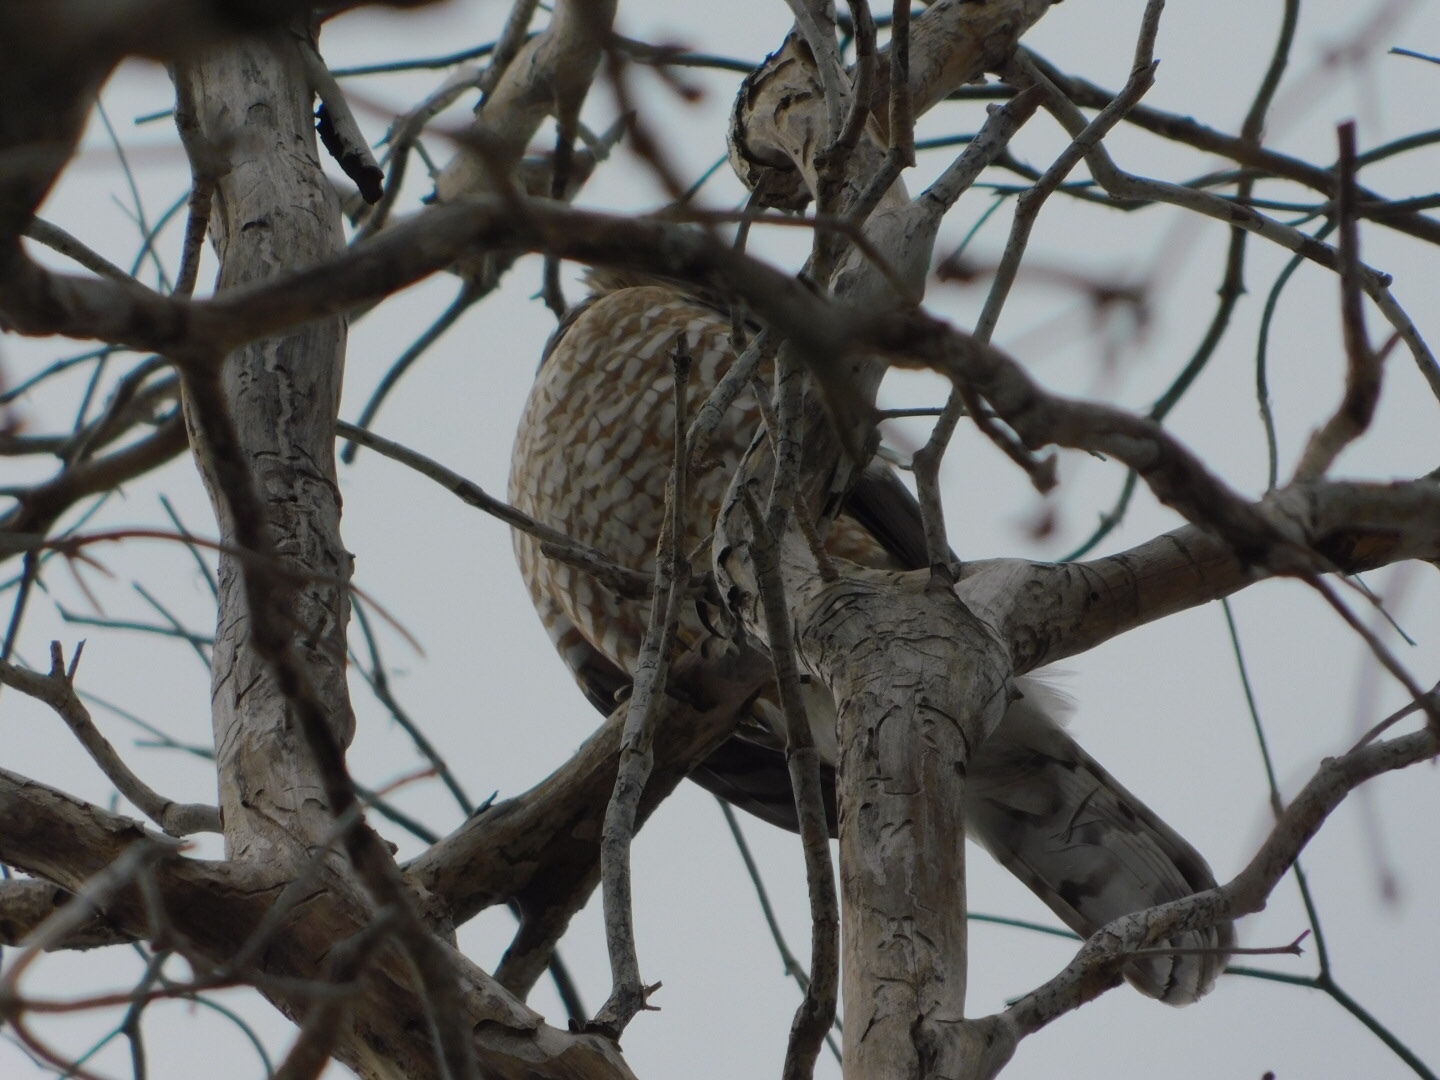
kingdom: Animalia
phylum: Chordata
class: Aves
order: Accipitriformes
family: Accipitridae
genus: Accipiter
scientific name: Accipiter cooperii
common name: Cooper's hawk
